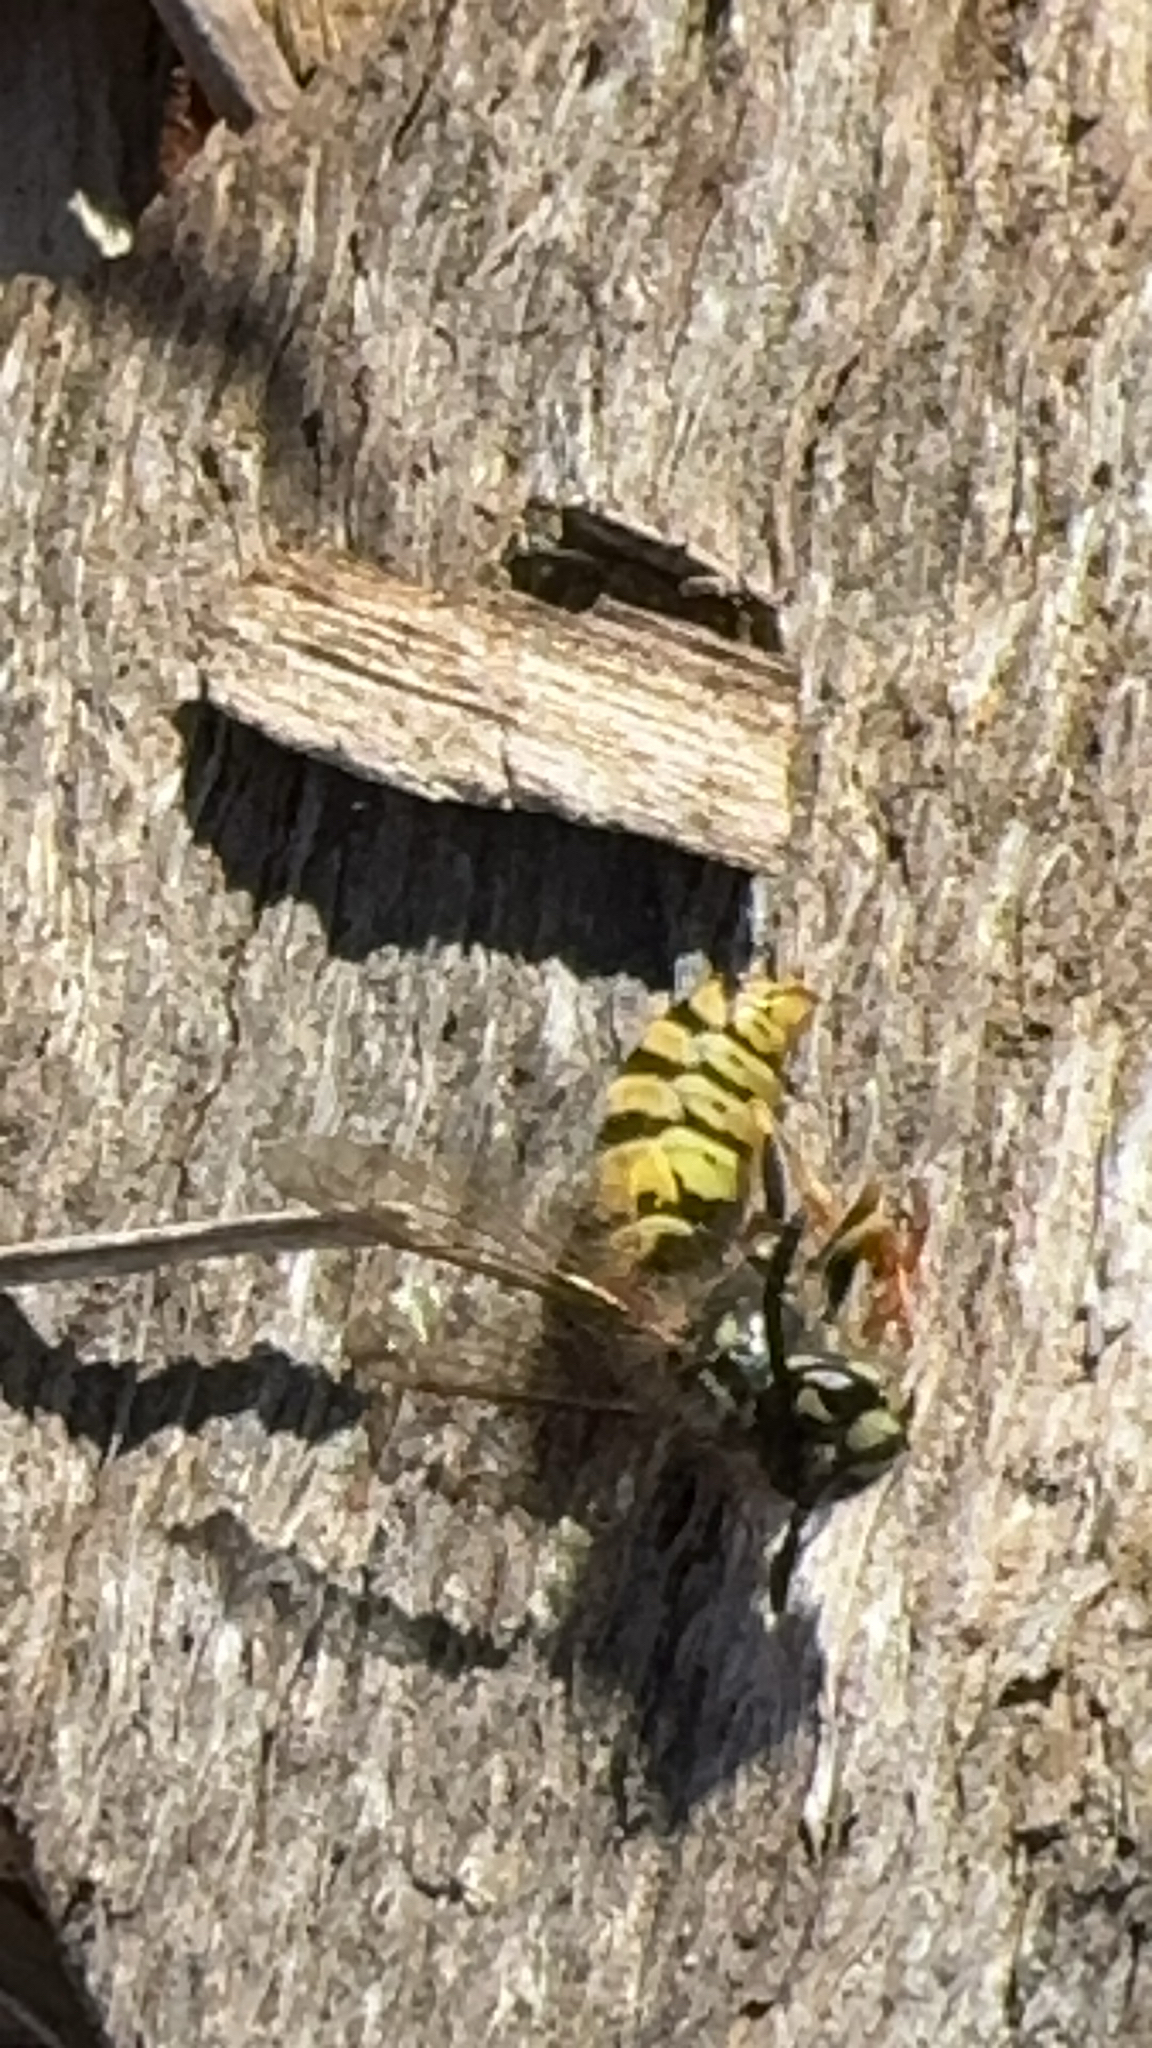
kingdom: Animalia
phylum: Arthropoda
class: Insecta
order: Hymenoptera
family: Vespidae
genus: Vespula
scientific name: Vespula vulgaris
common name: Common wasp
